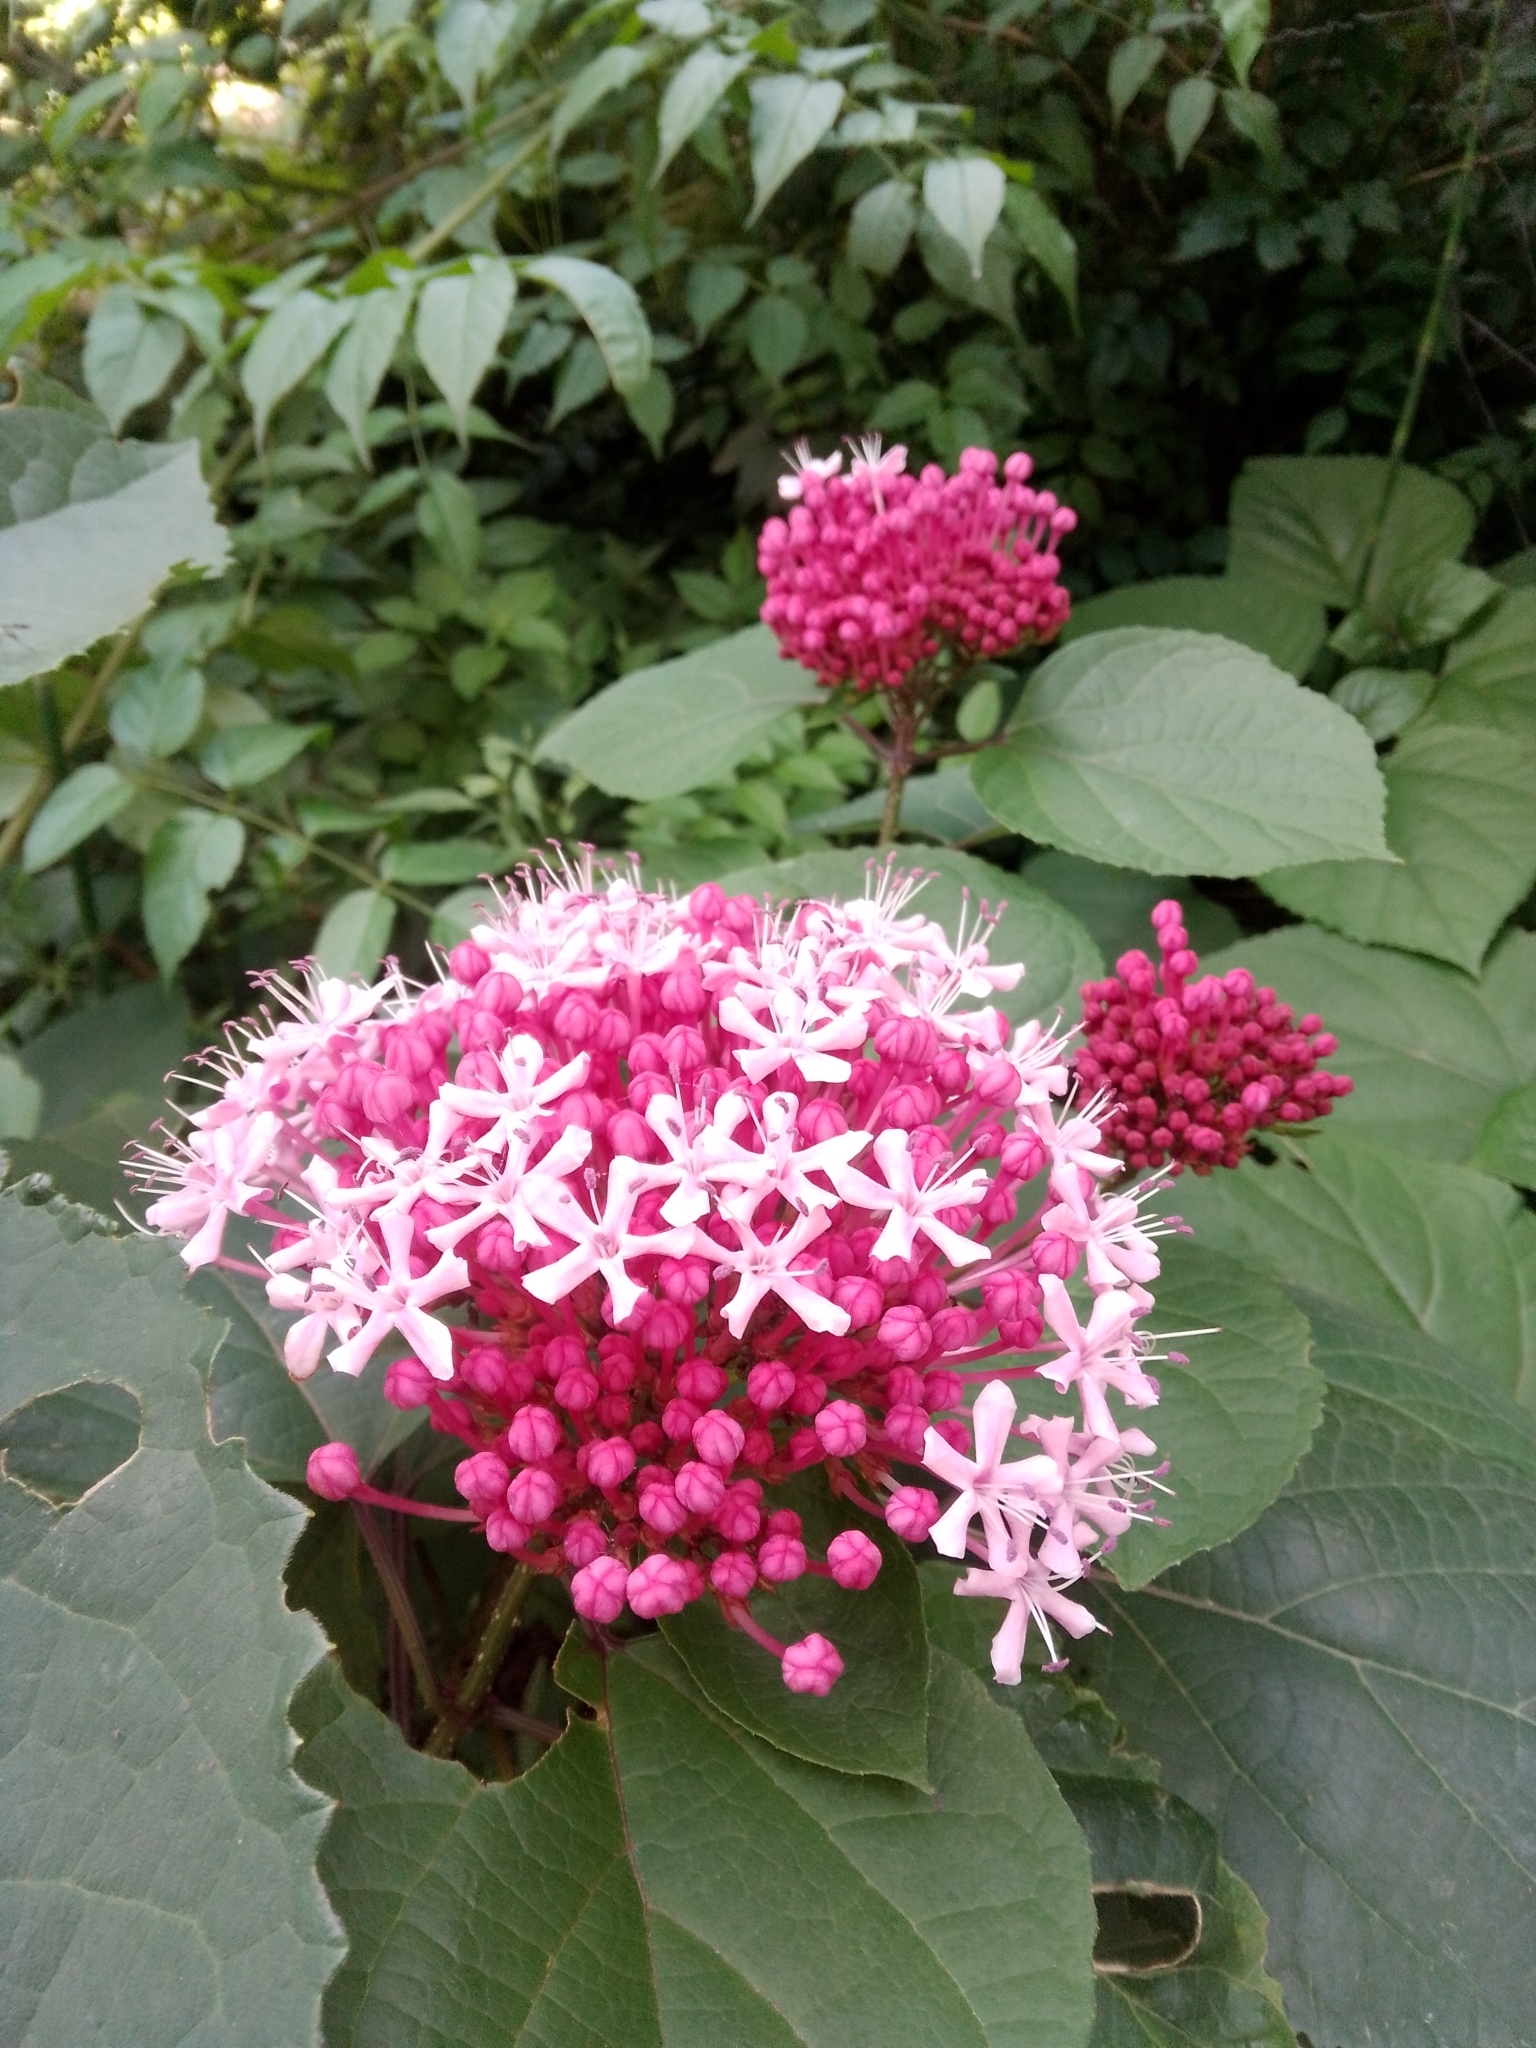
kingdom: Plantae
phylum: Tracheophyta
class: Magnoliopsida
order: Lamiales
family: Lamiaceae
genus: Clerodendrum
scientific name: Clerodendrum bungei
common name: Rose glorybower
